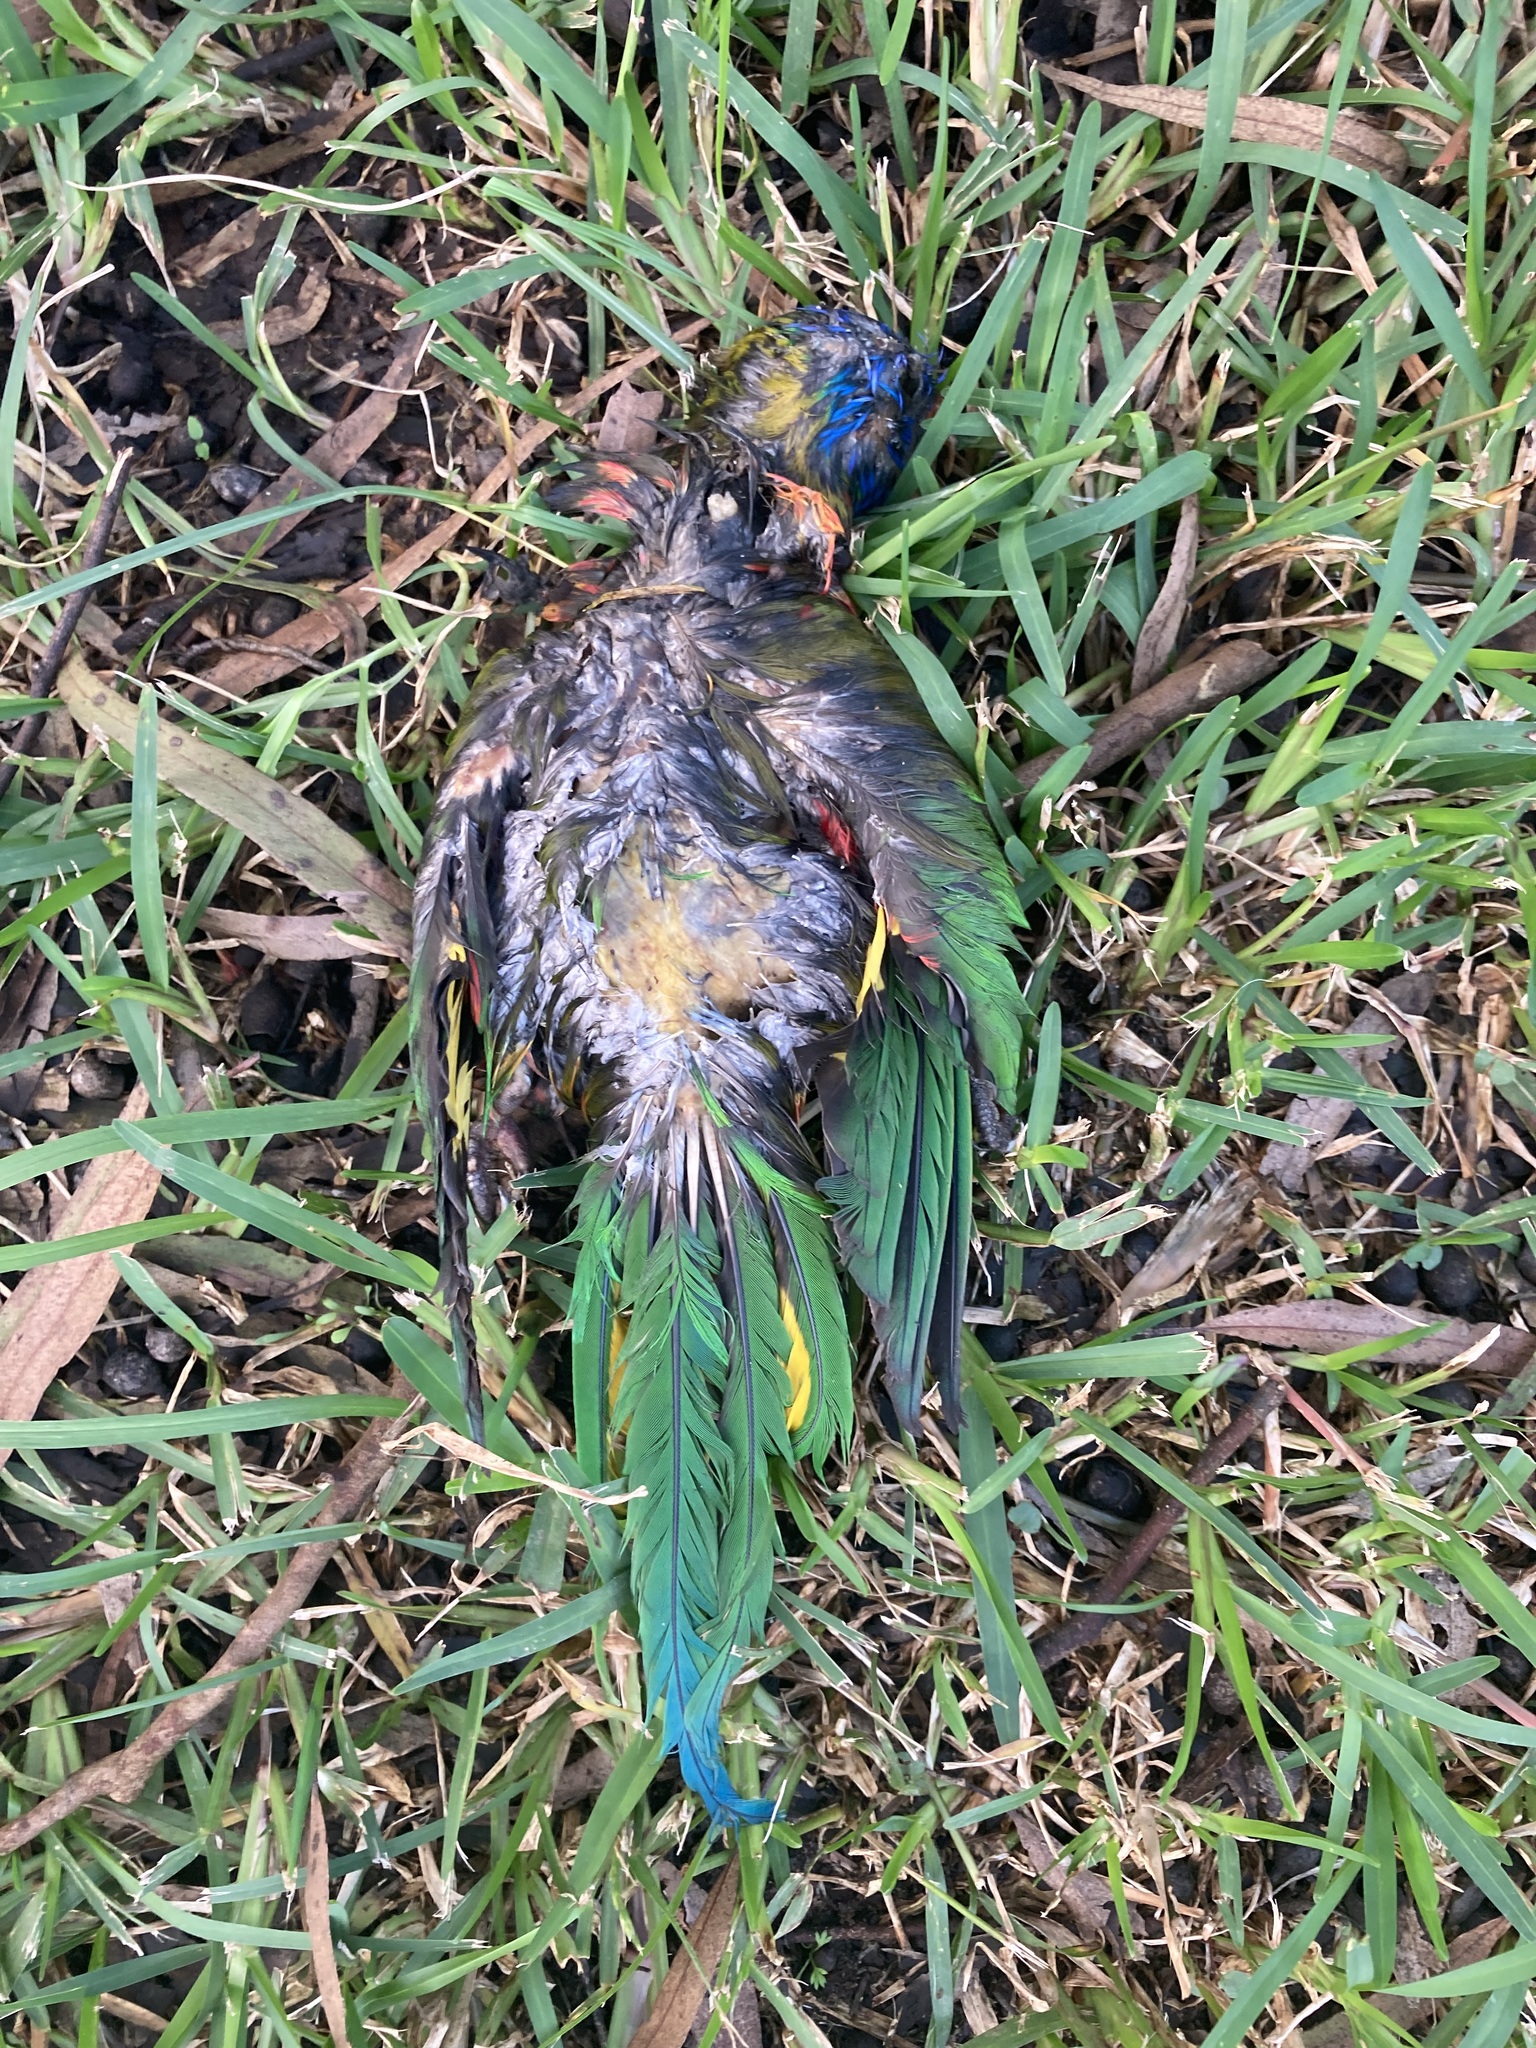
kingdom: Animalia
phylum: Chordata
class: Aves
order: Psittaciformes
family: Psittacidae
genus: Trichoglossus
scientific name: Trichoglossus haematodus
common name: Coconut lorikeet
